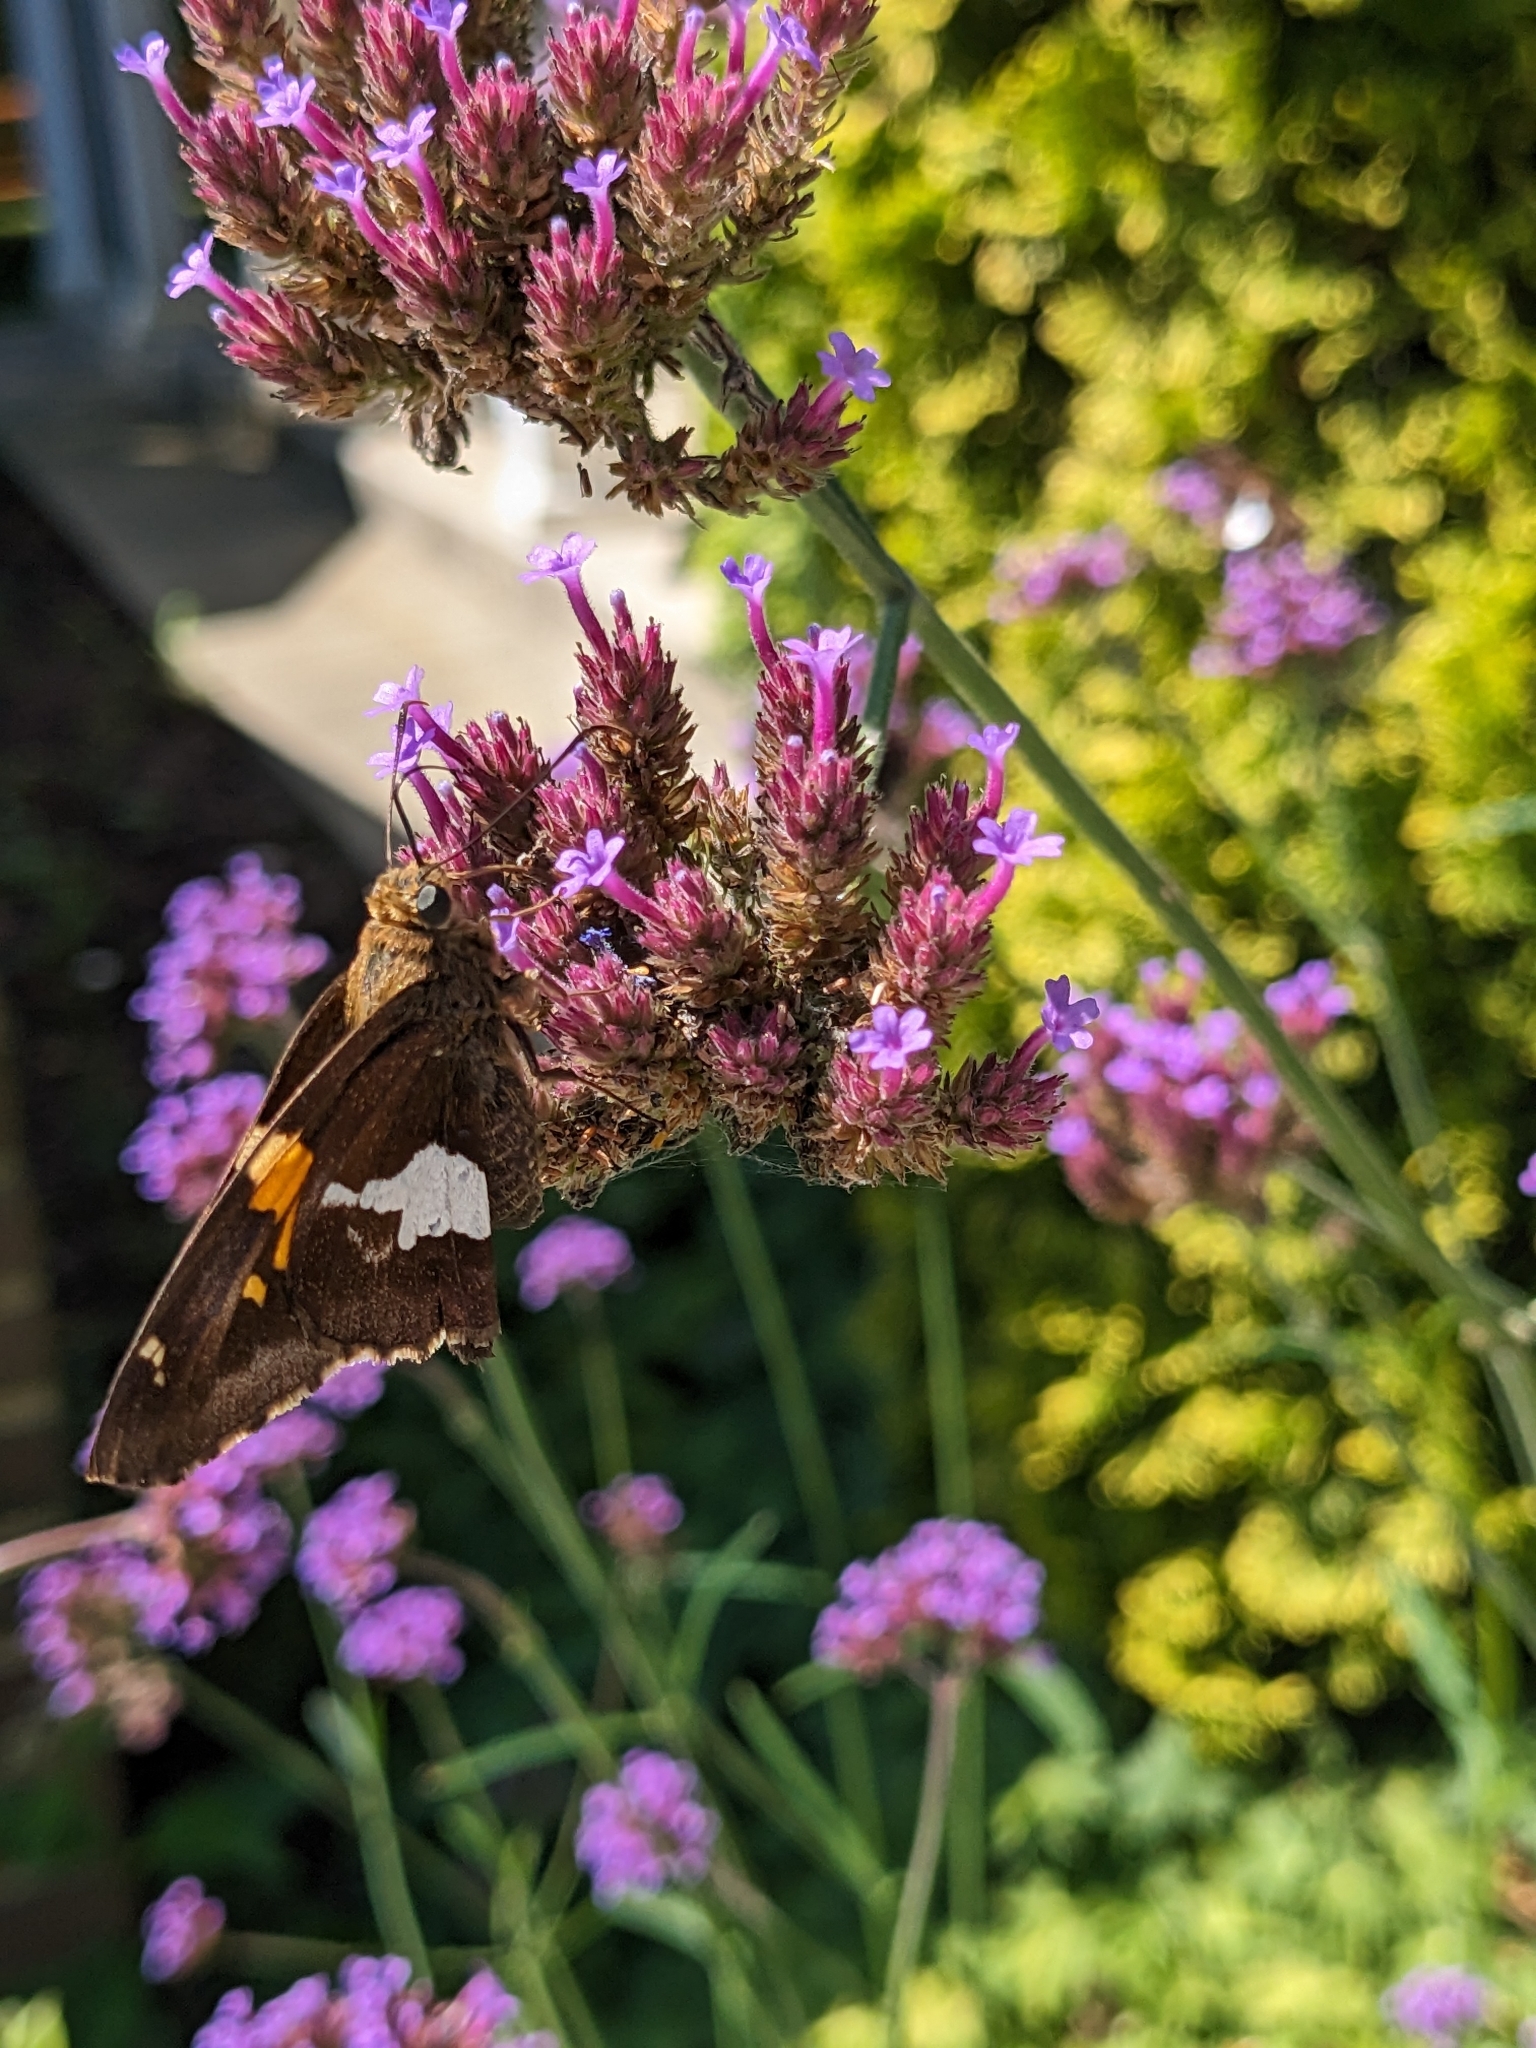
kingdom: Animalia
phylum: Arthropoda
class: Insecta
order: Lepidoptera
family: Hesperiidae
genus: Epargyreus
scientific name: Epargyreus clarus
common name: Silver-spotted skipper
